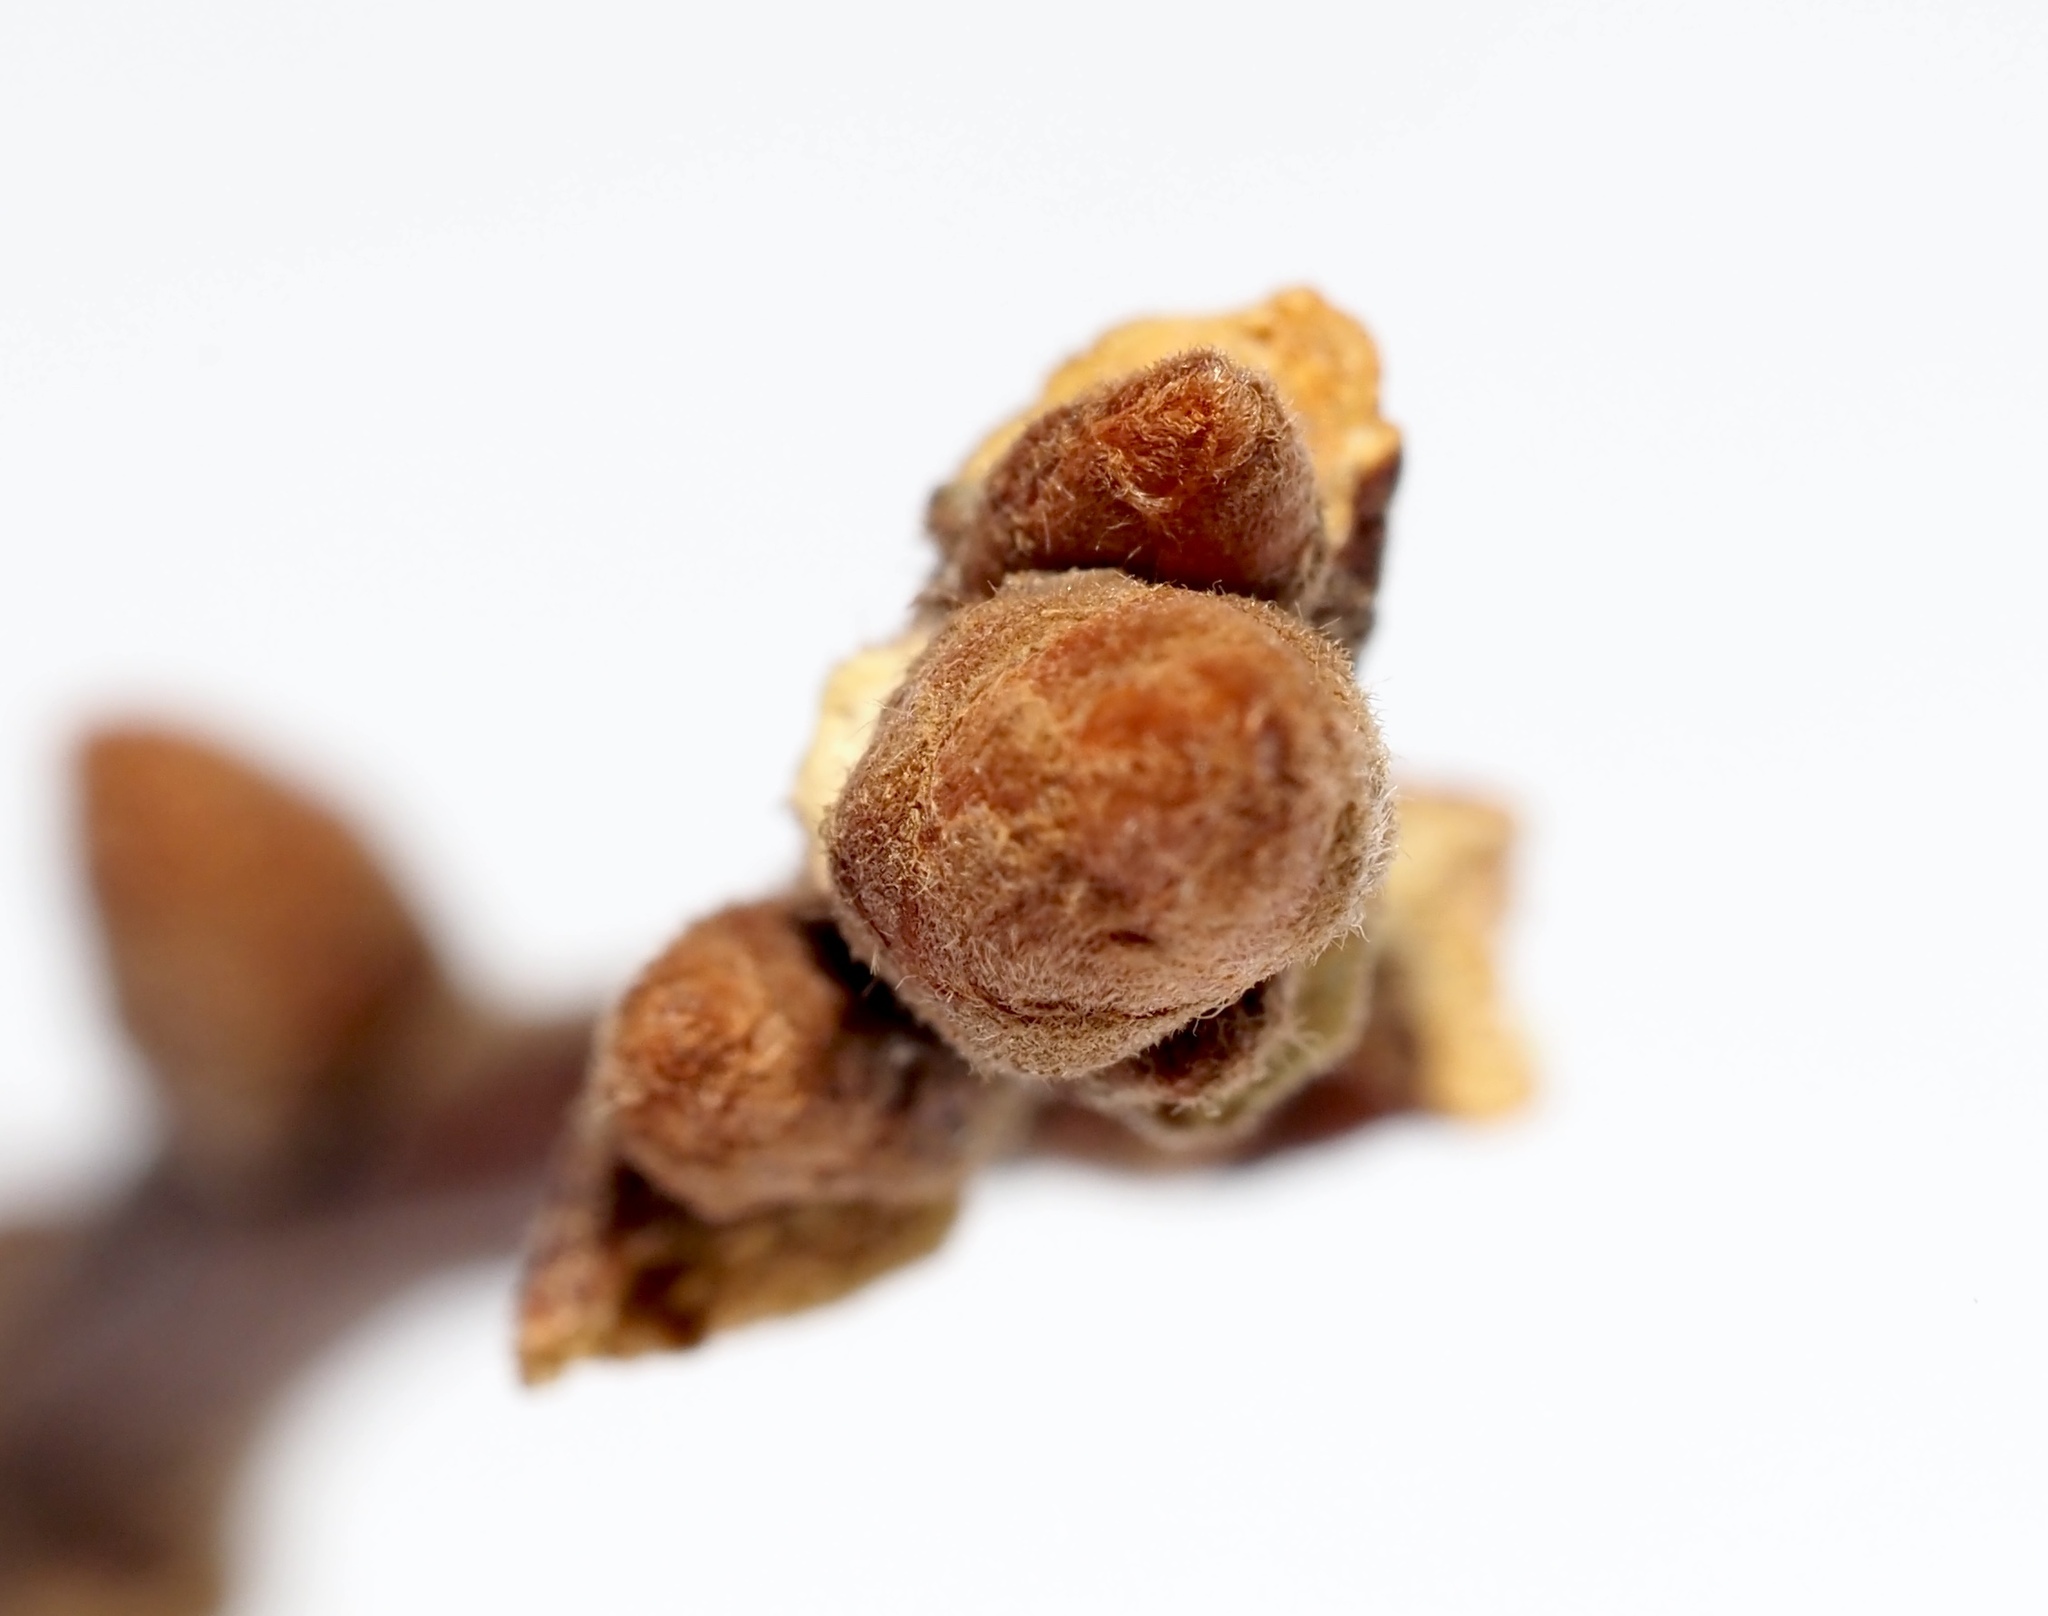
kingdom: Plantae
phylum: Tracheophyta
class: Magnoliopsida
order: Fagales
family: Fagaceae
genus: Quercus
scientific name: Quercus velutina
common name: Black oak
